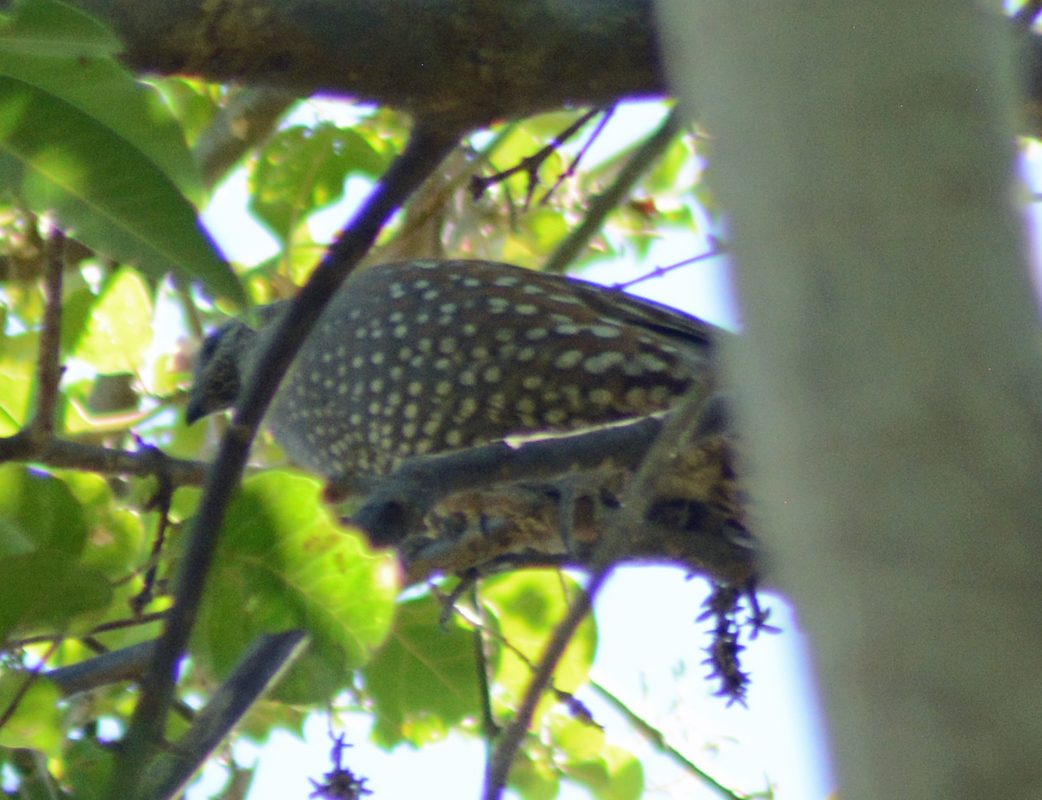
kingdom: Animalia
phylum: Chordata
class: Aves
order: Galliformes
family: Odontophoridae
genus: Callipepla
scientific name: Callipepla douglasii
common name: Elegant quail
